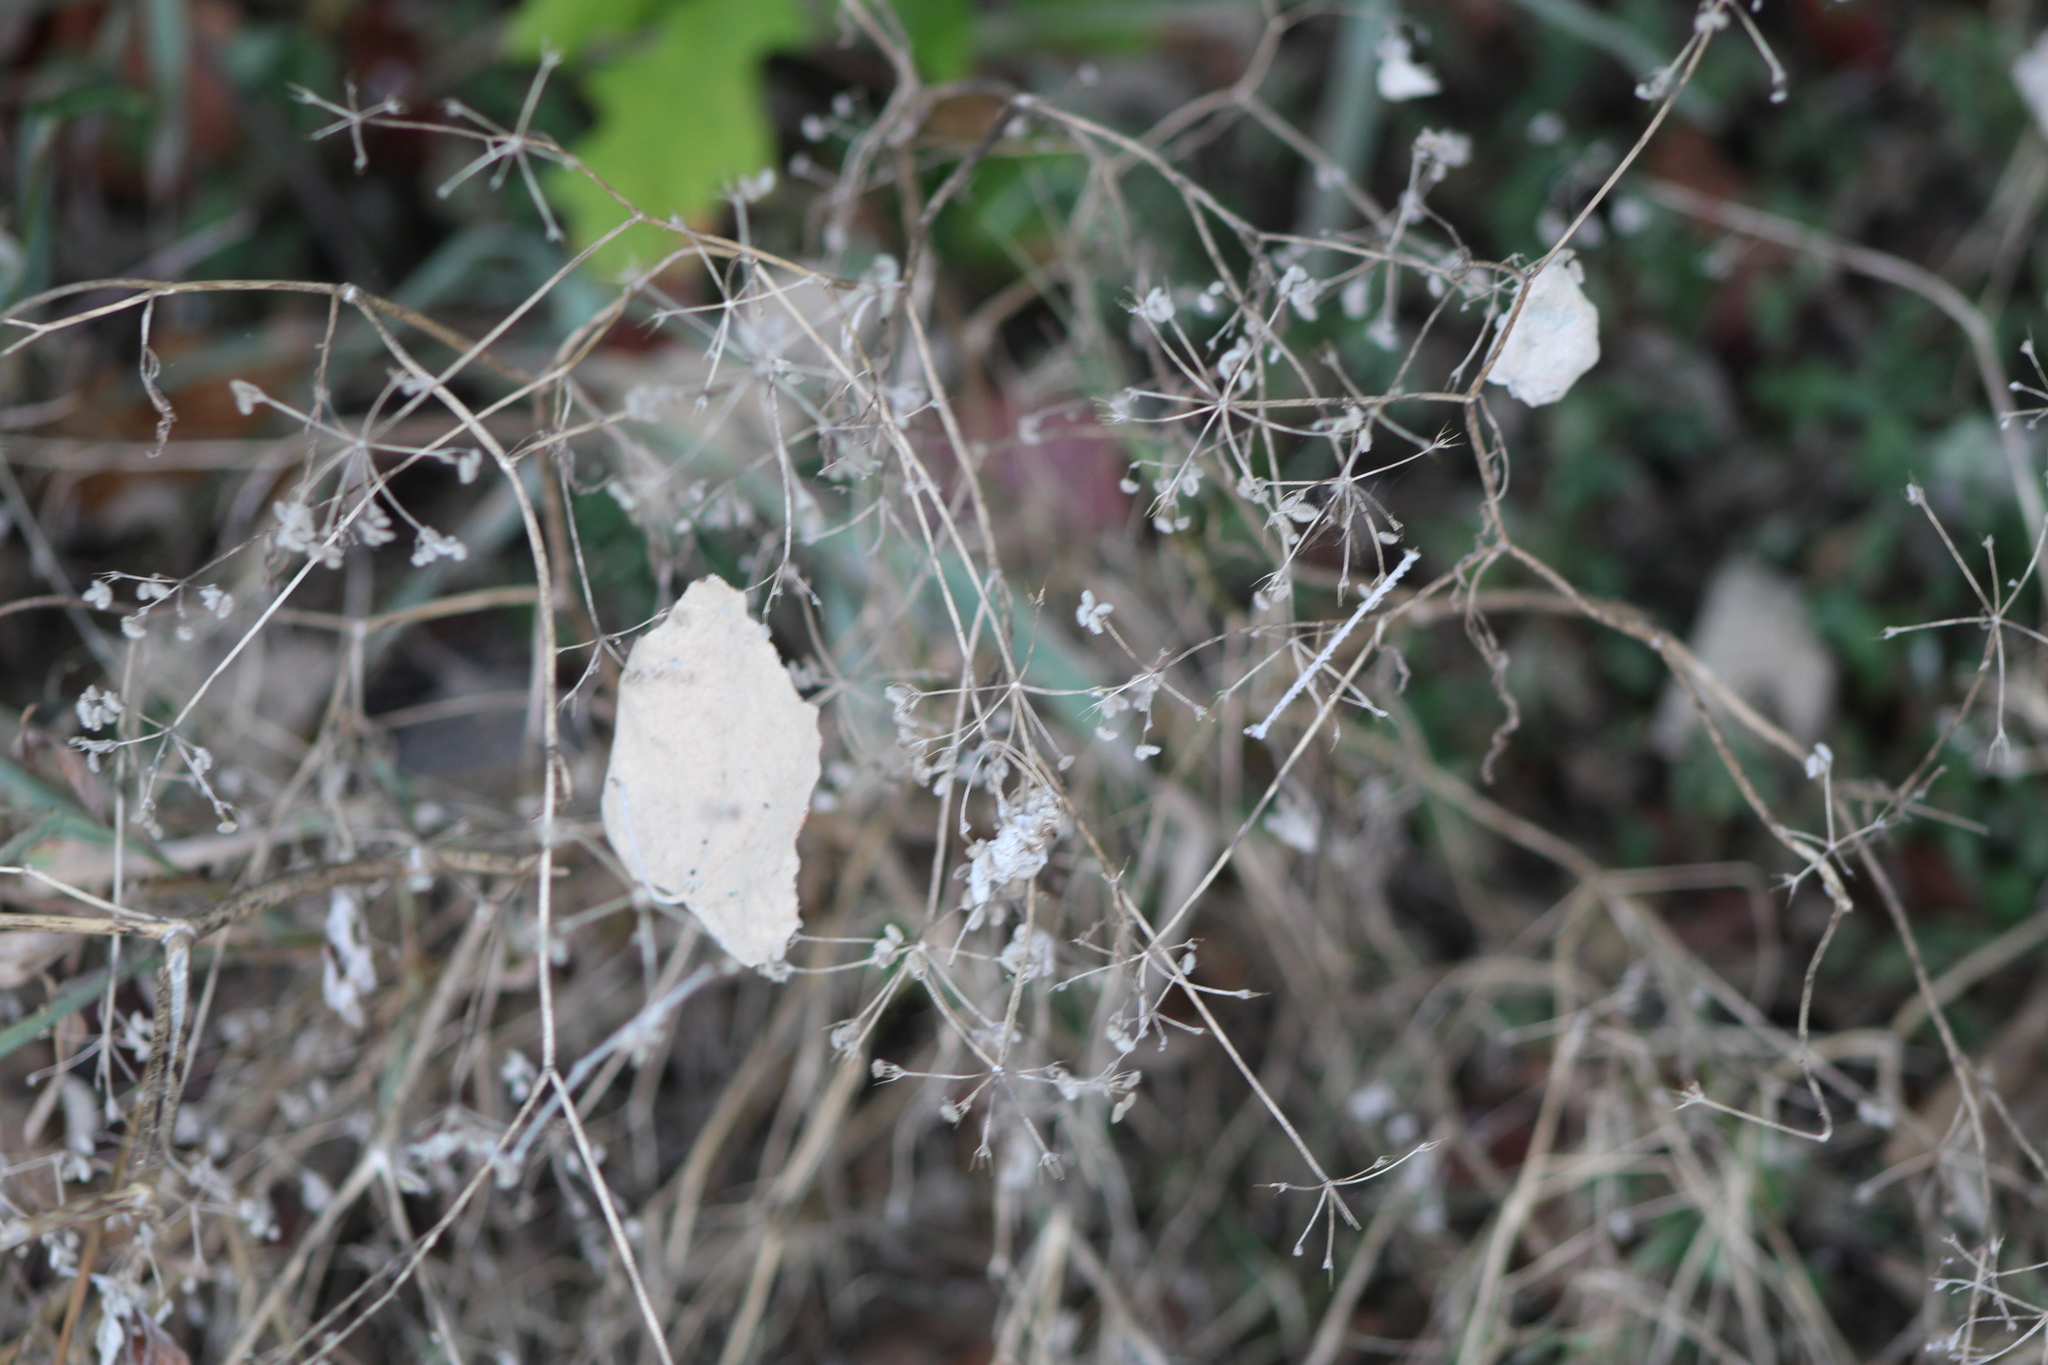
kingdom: Plantae
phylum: Tracheophyta
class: Magnoliopsida
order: Apiales
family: Apiaceae
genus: Torilis
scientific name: Torilis arvensis
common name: Spreading hedge-parsley
